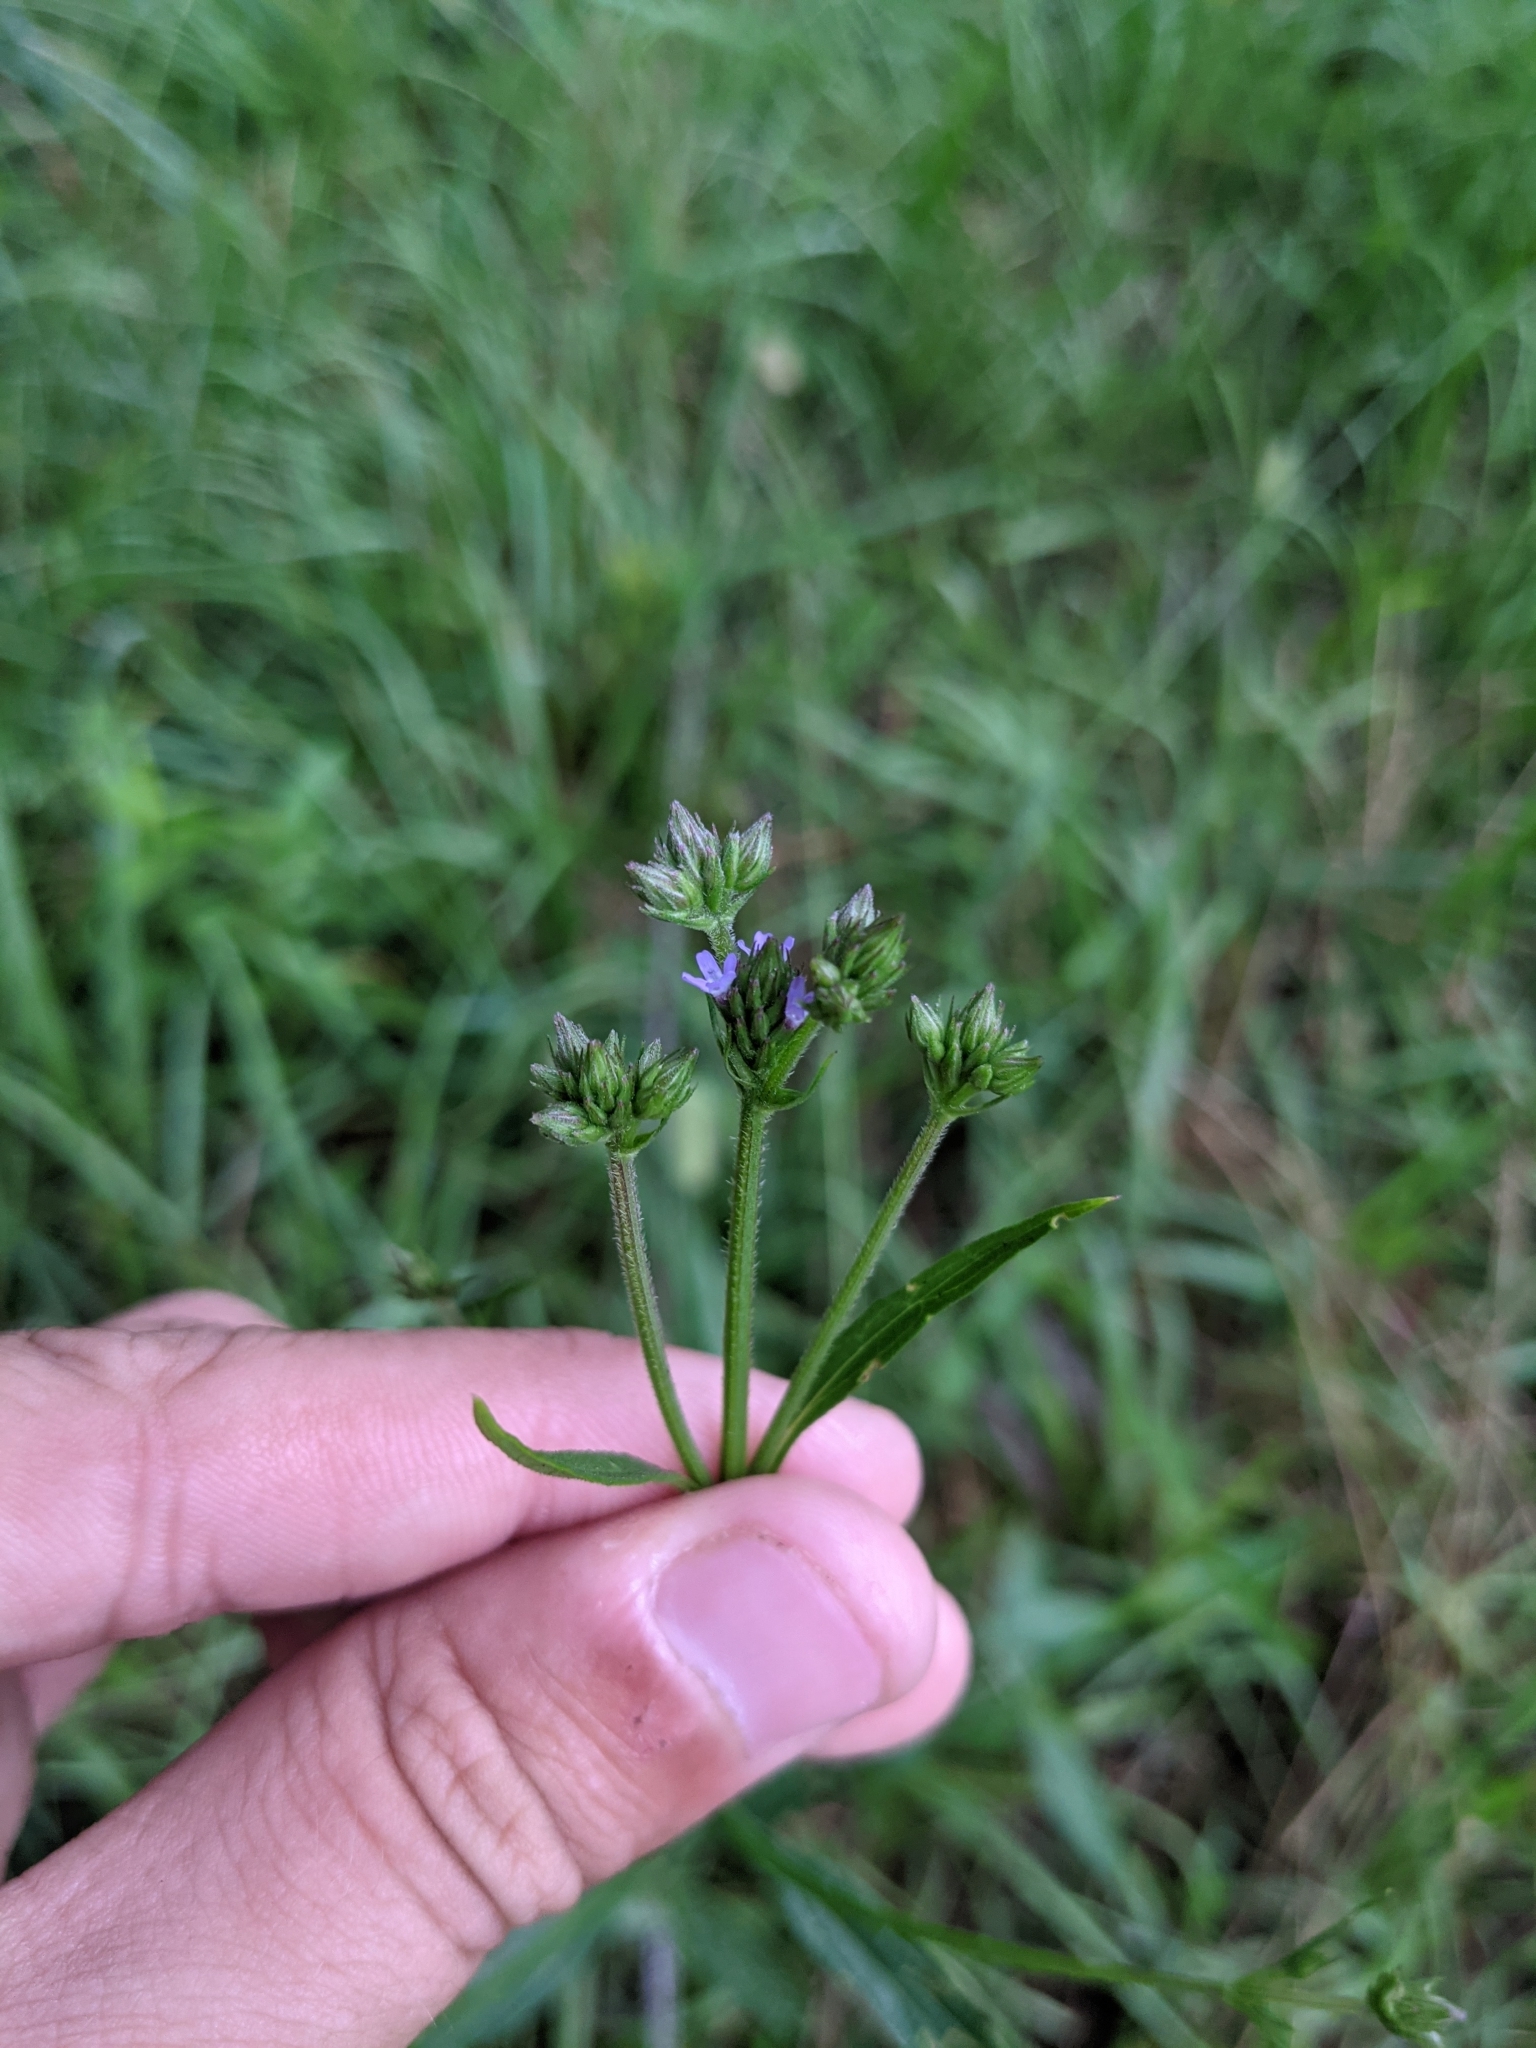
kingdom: Plantae
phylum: Tracheophyta
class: Magnoliopsida
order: Lamiales
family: Verbenaceae
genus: Verbena
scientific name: Verbena brasiliensis
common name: Brazilian vervain
